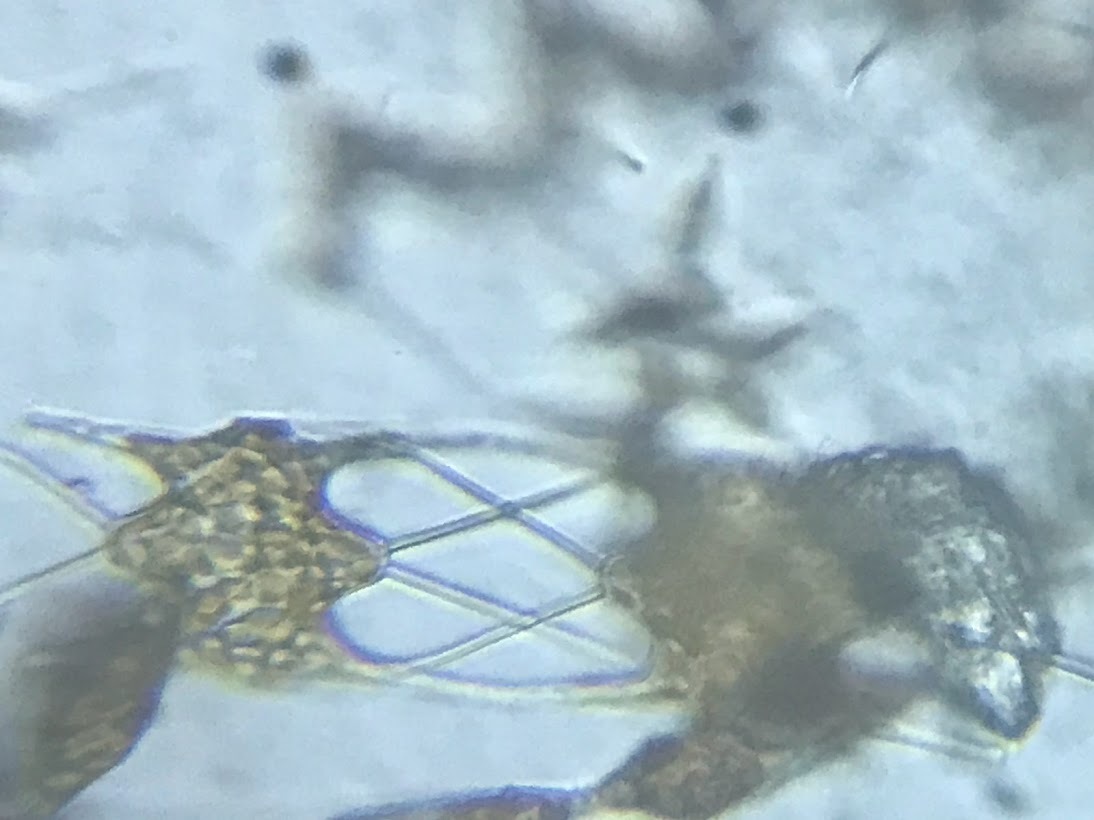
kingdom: Chromista
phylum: Ochrophyta
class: Bacillariophyceae
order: Triceratiales
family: Triceratiaceae
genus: Hobaniella
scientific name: Hobaniella longicruris
